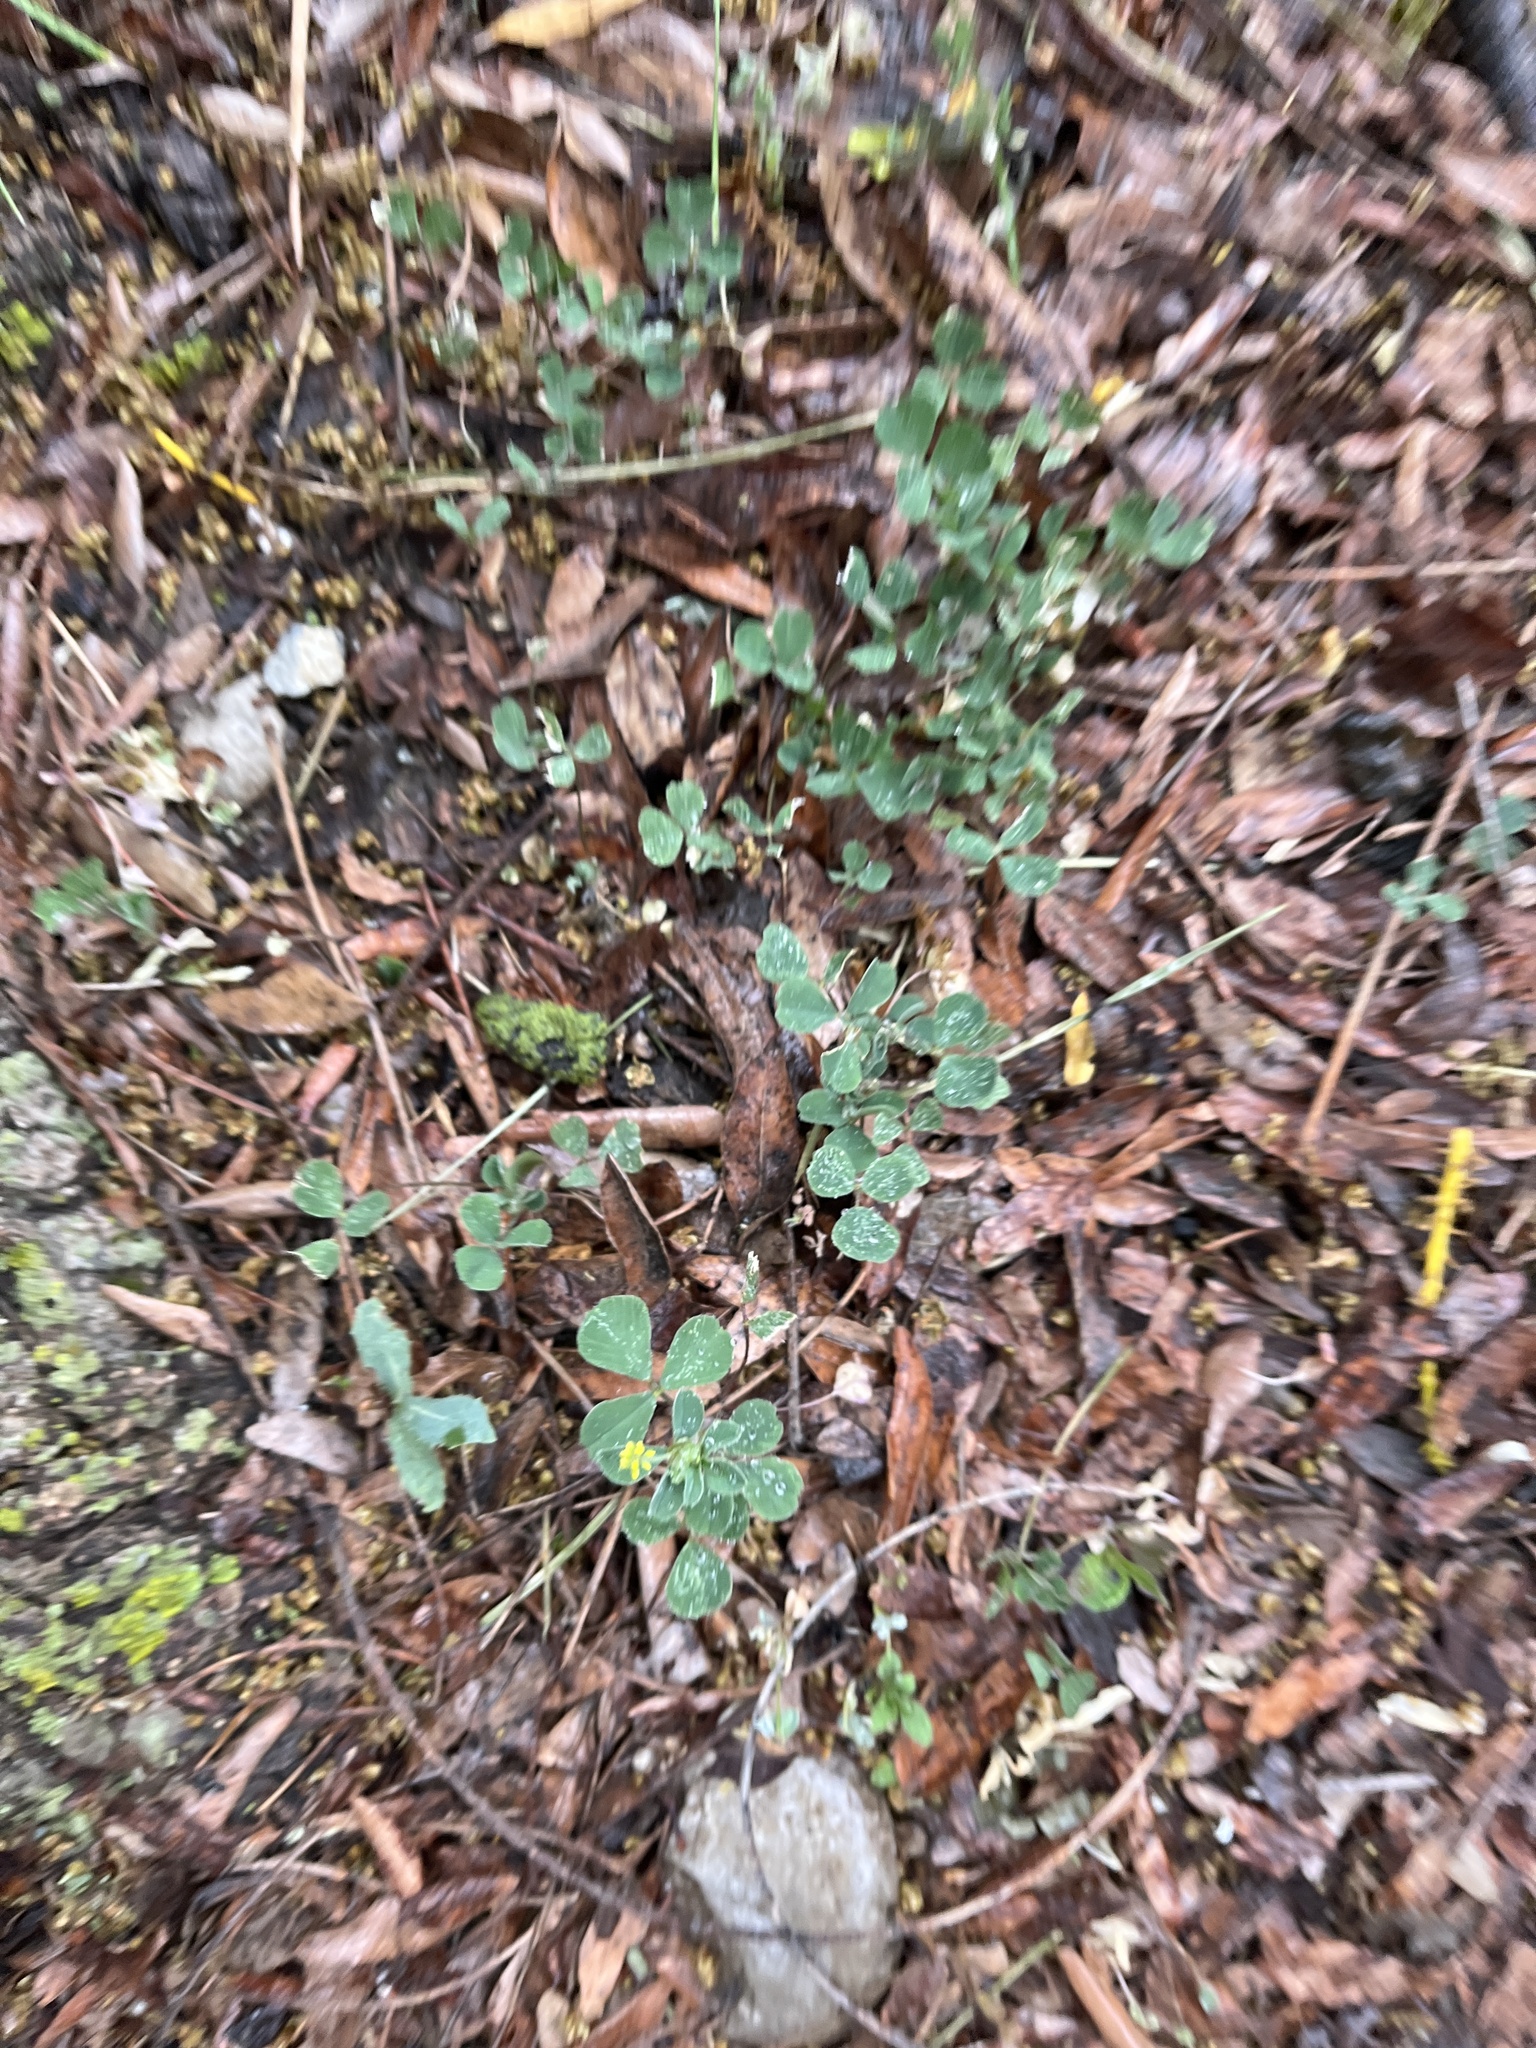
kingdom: Plantae
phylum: Tracheophyta
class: Magnoliopsida
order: Fabales
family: Fabaceae
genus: Medicago
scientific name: Medicago lupulina
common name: Black medick
